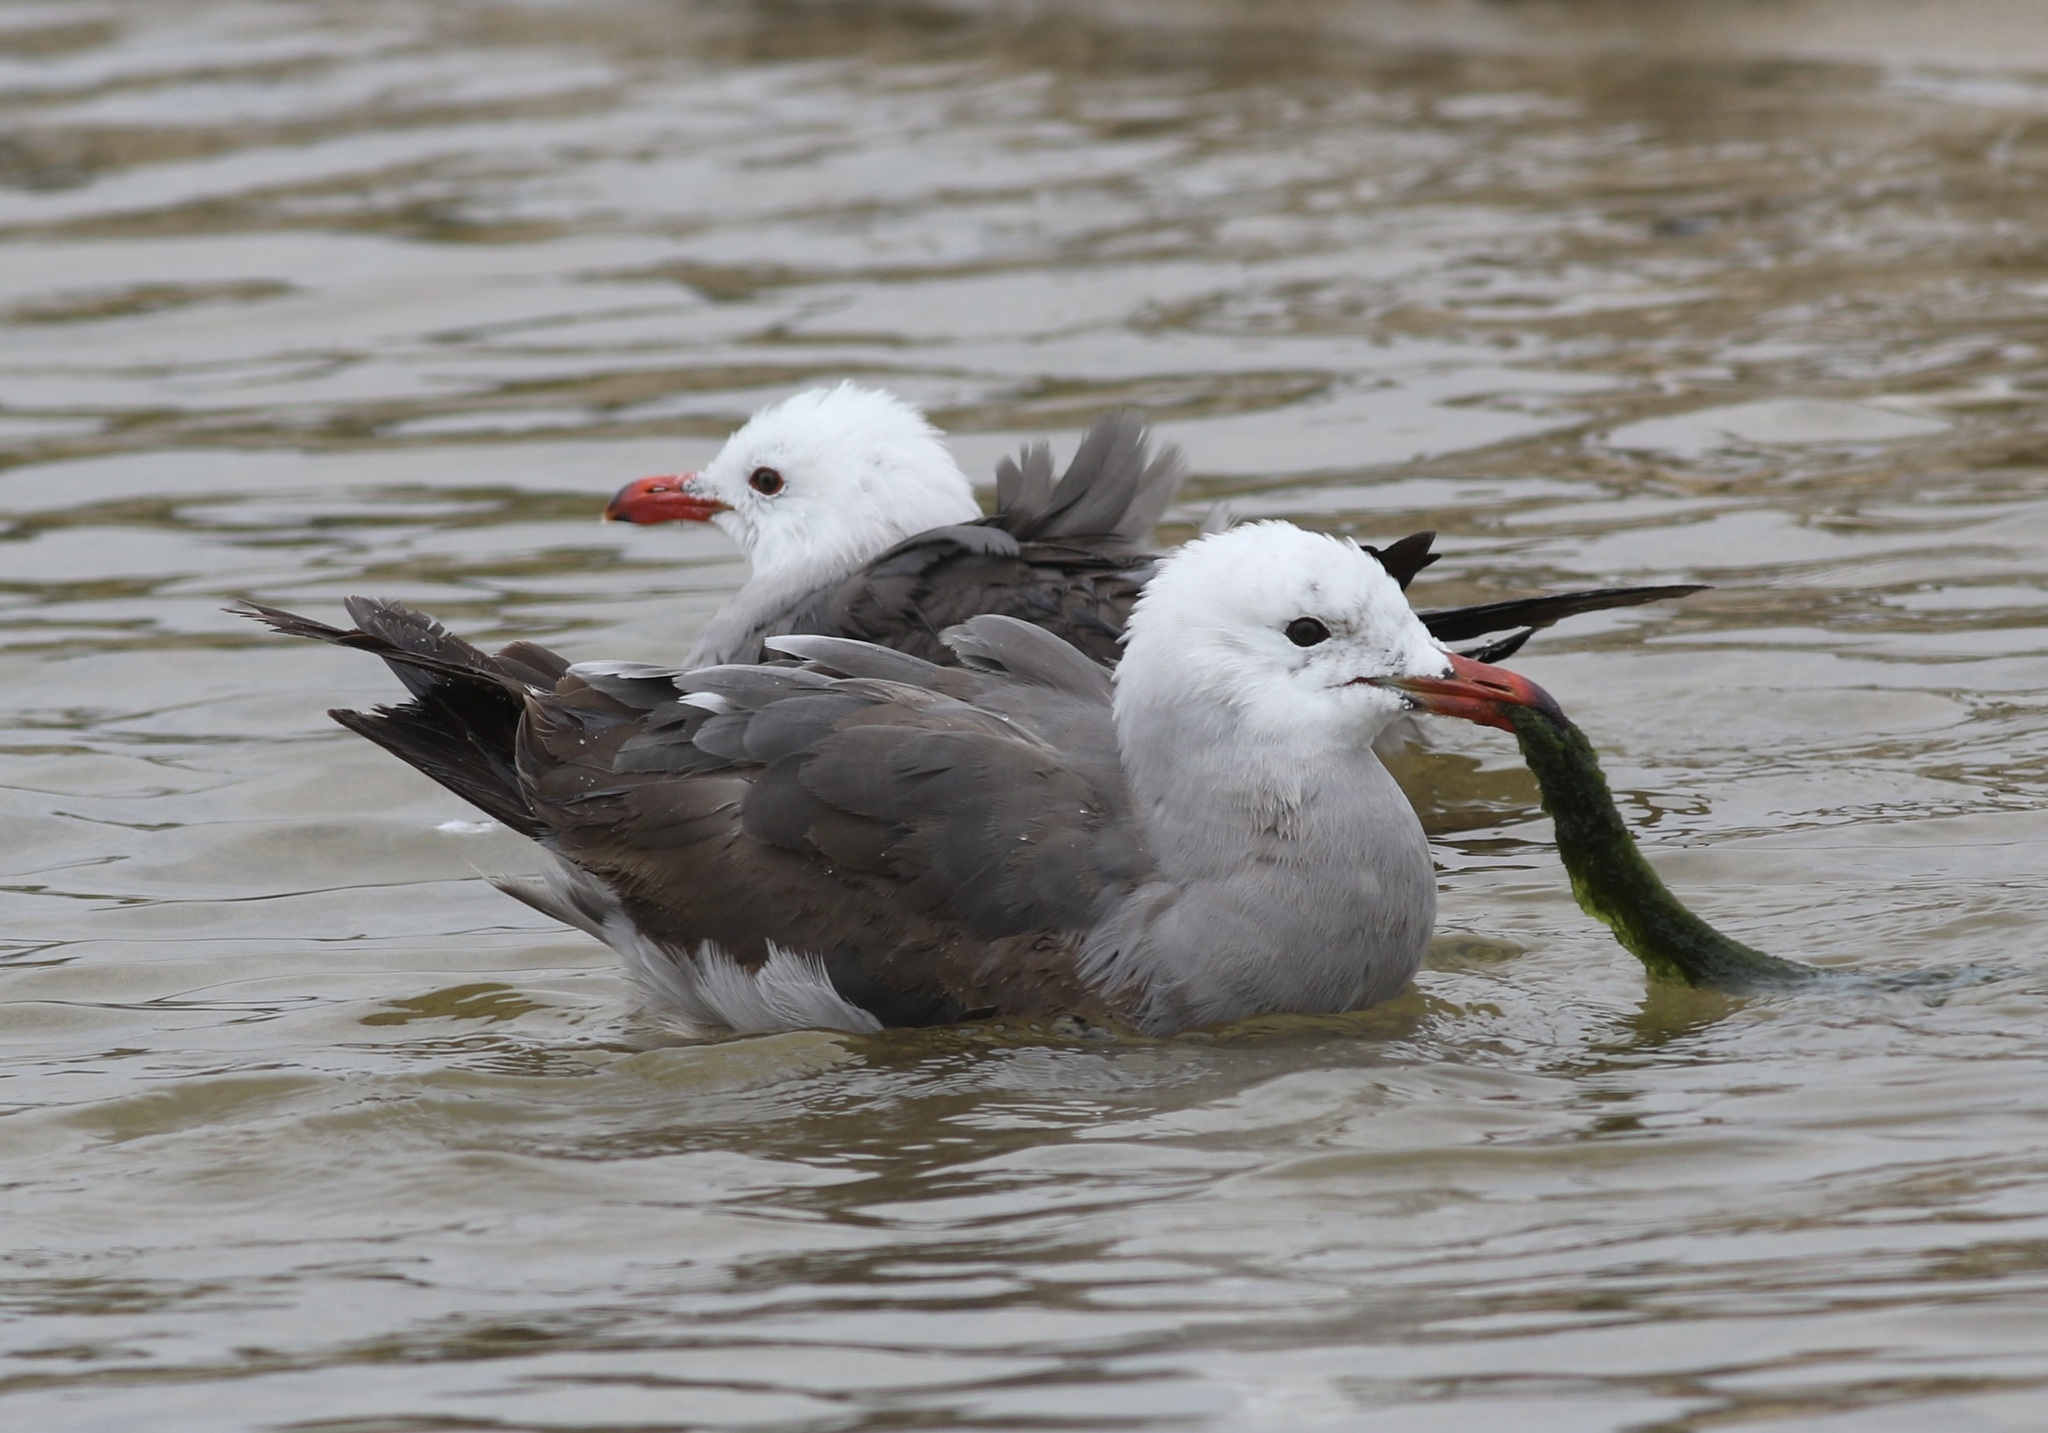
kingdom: Animalia
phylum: Chordata
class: Aves
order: Charadriiformes
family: Laridae
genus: Larus
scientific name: Larus heermanni
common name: Heermann's gull
